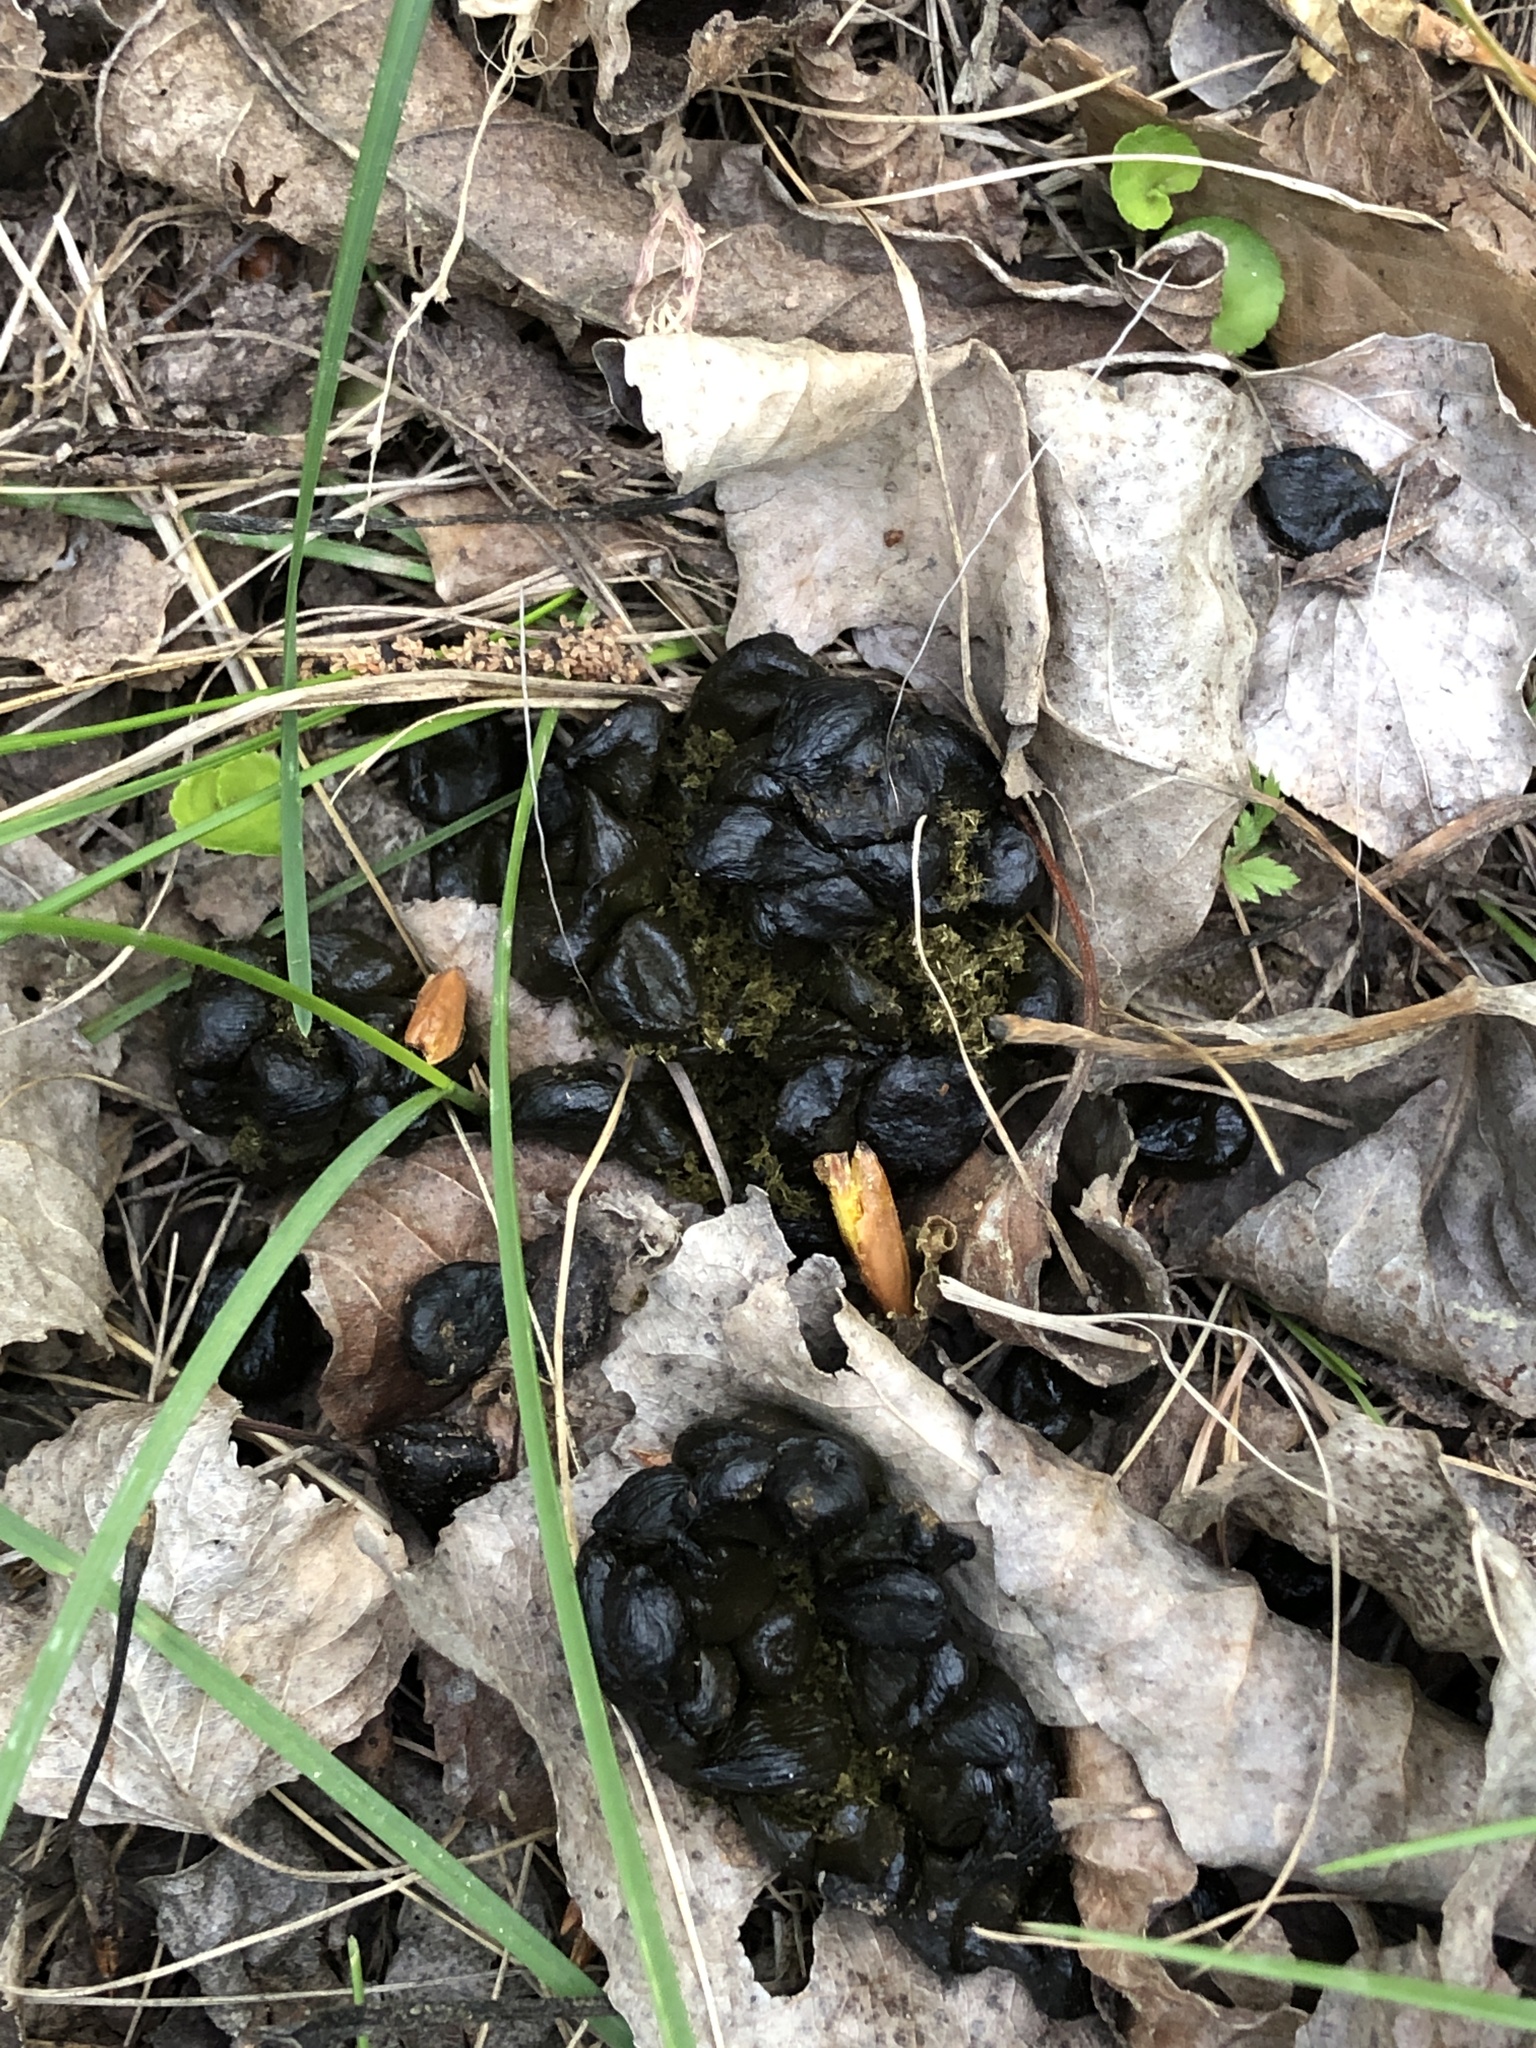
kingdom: Animalia
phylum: Chordata
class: Mammalia
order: Artiodactyla
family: Cervidae
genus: Capreolus
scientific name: Capreolus capreolus
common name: Western roe deer
